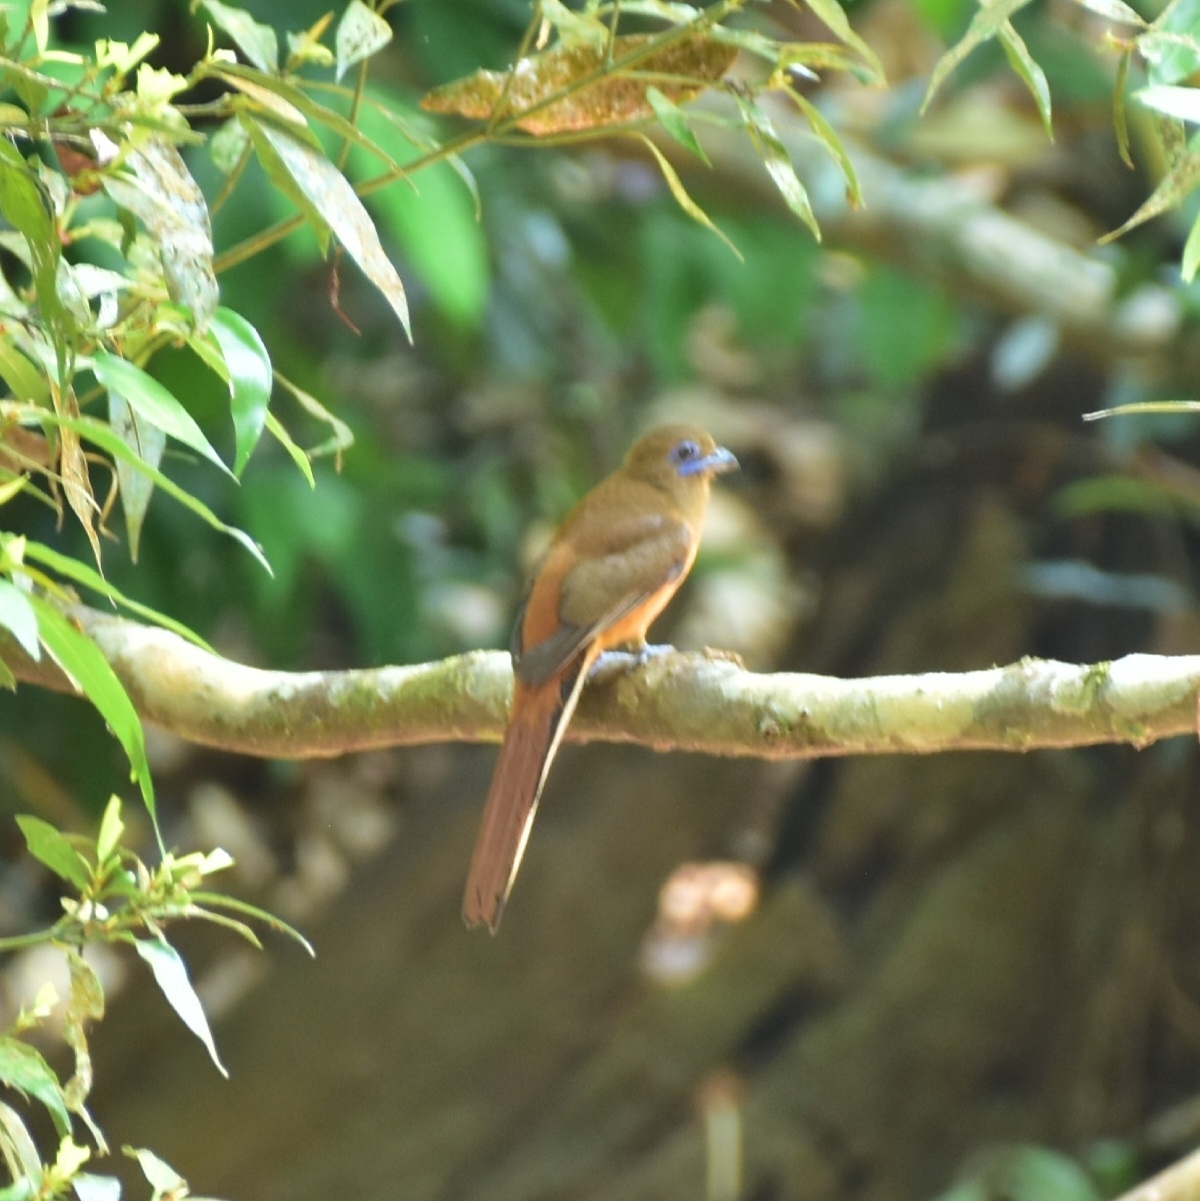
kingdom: Animalia
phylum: Chordata
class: Aves
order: Trogoniformes
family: Trogonidae
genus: Harpactes
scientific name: Harpactes fasciatus
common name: Malabar trogon
